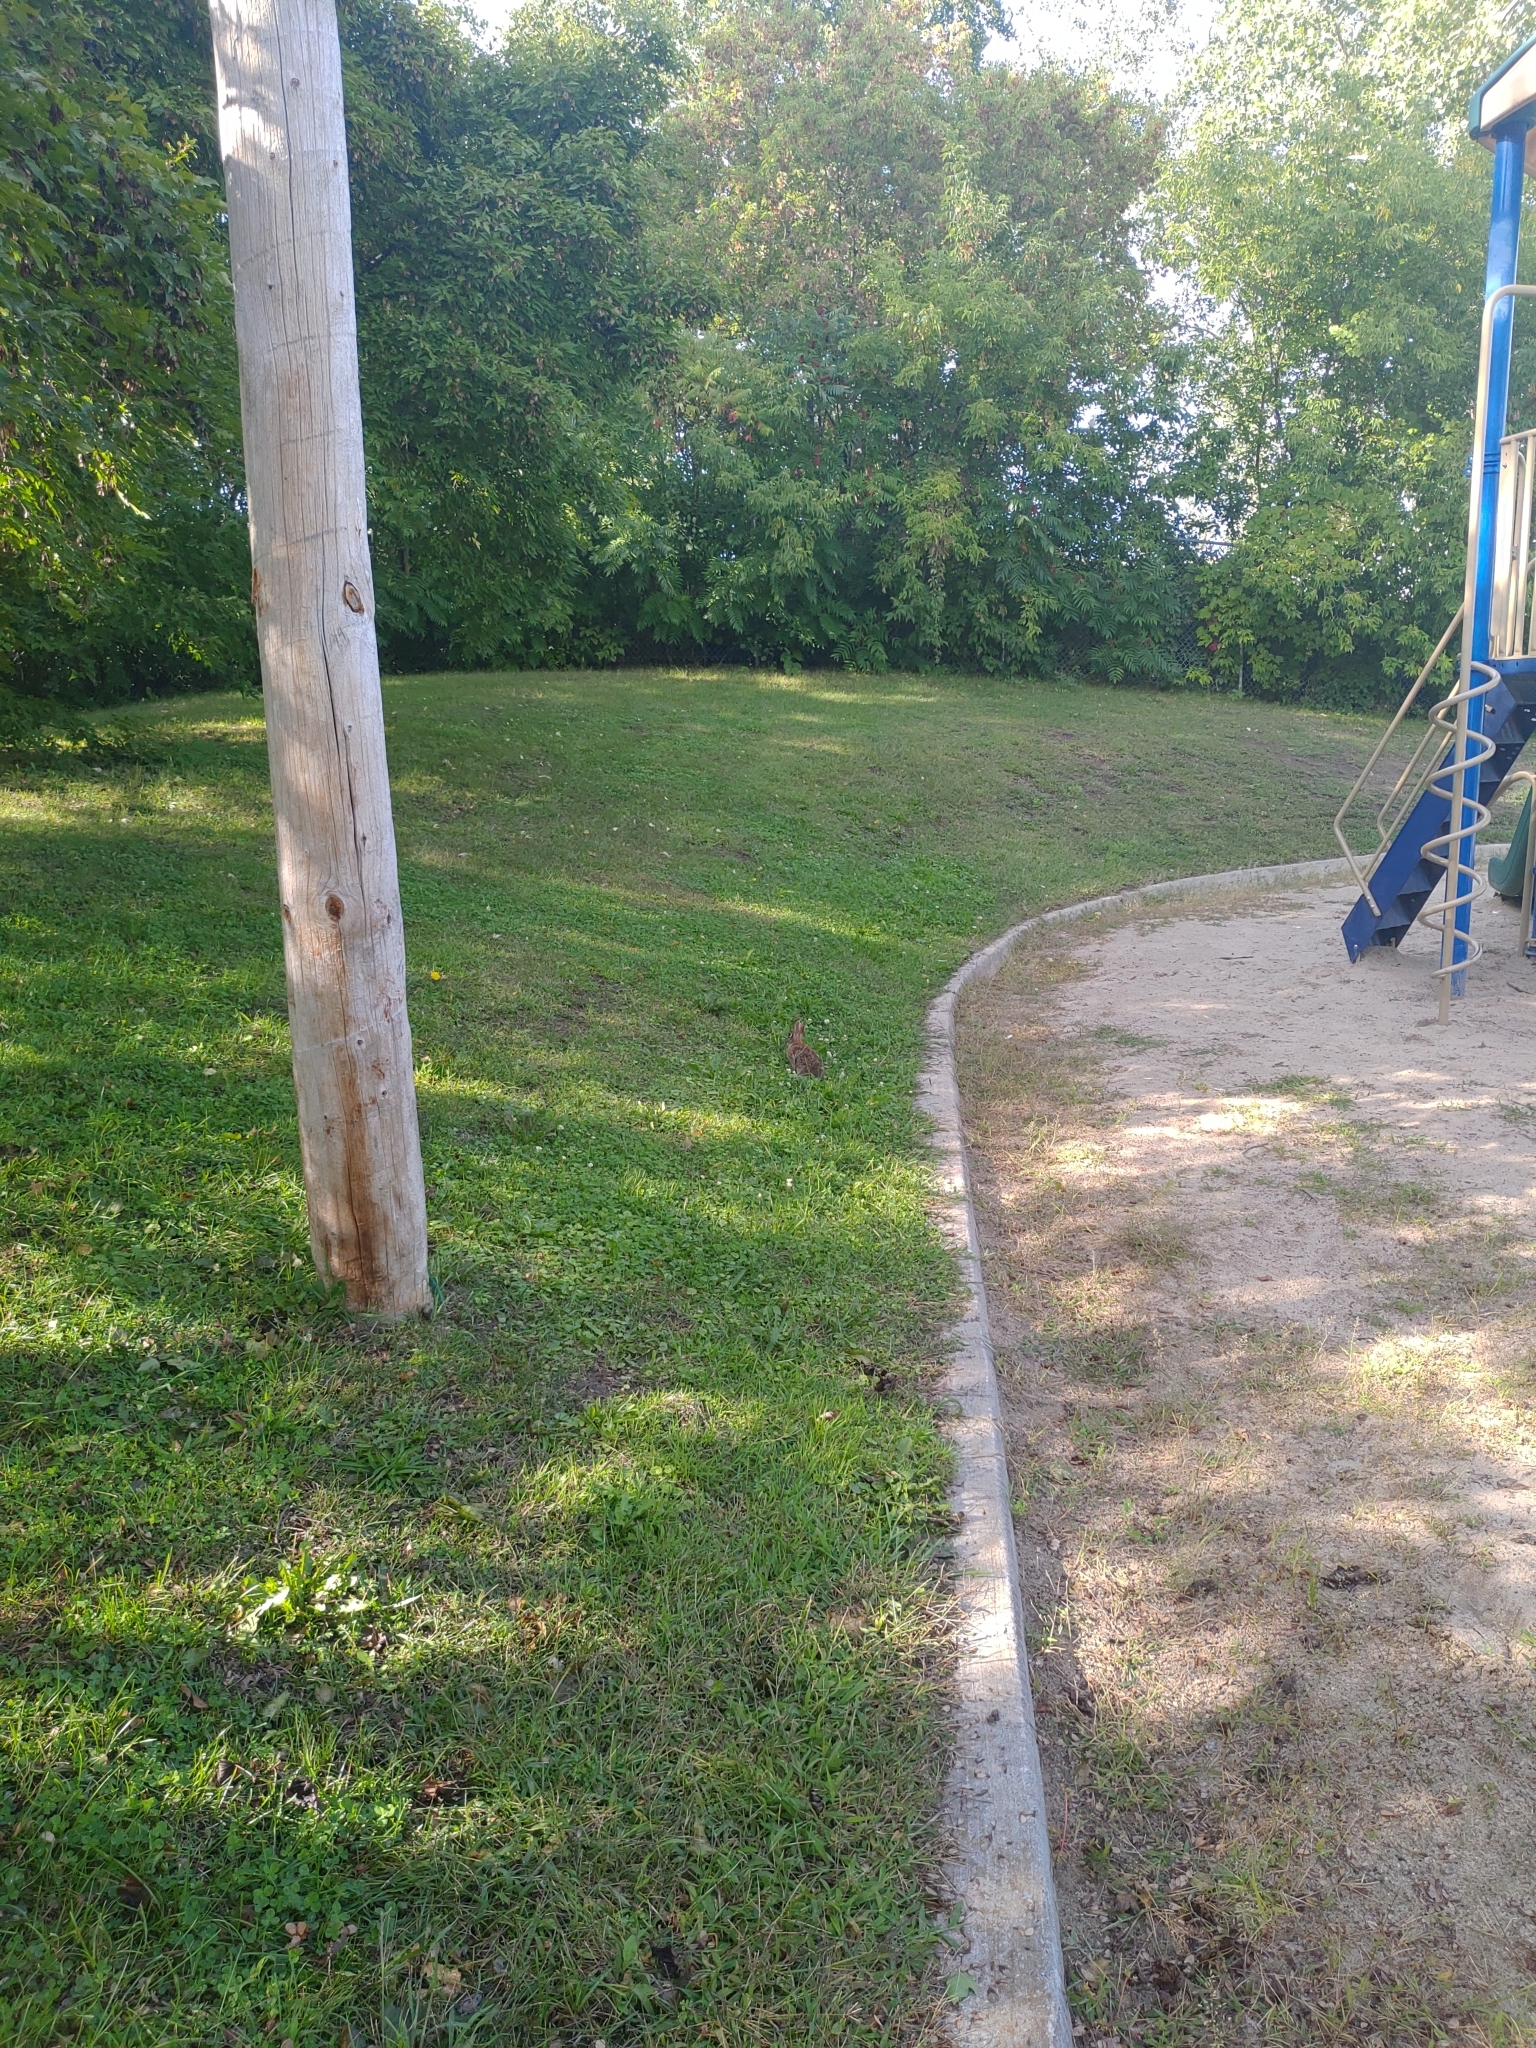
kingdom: Animalia
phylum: Chordata
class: Mammalia
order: Lagomorpha
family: Leporidae
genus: Sylvilagus
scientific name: Sylvilagus floridanus
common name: Eastern cottontail
